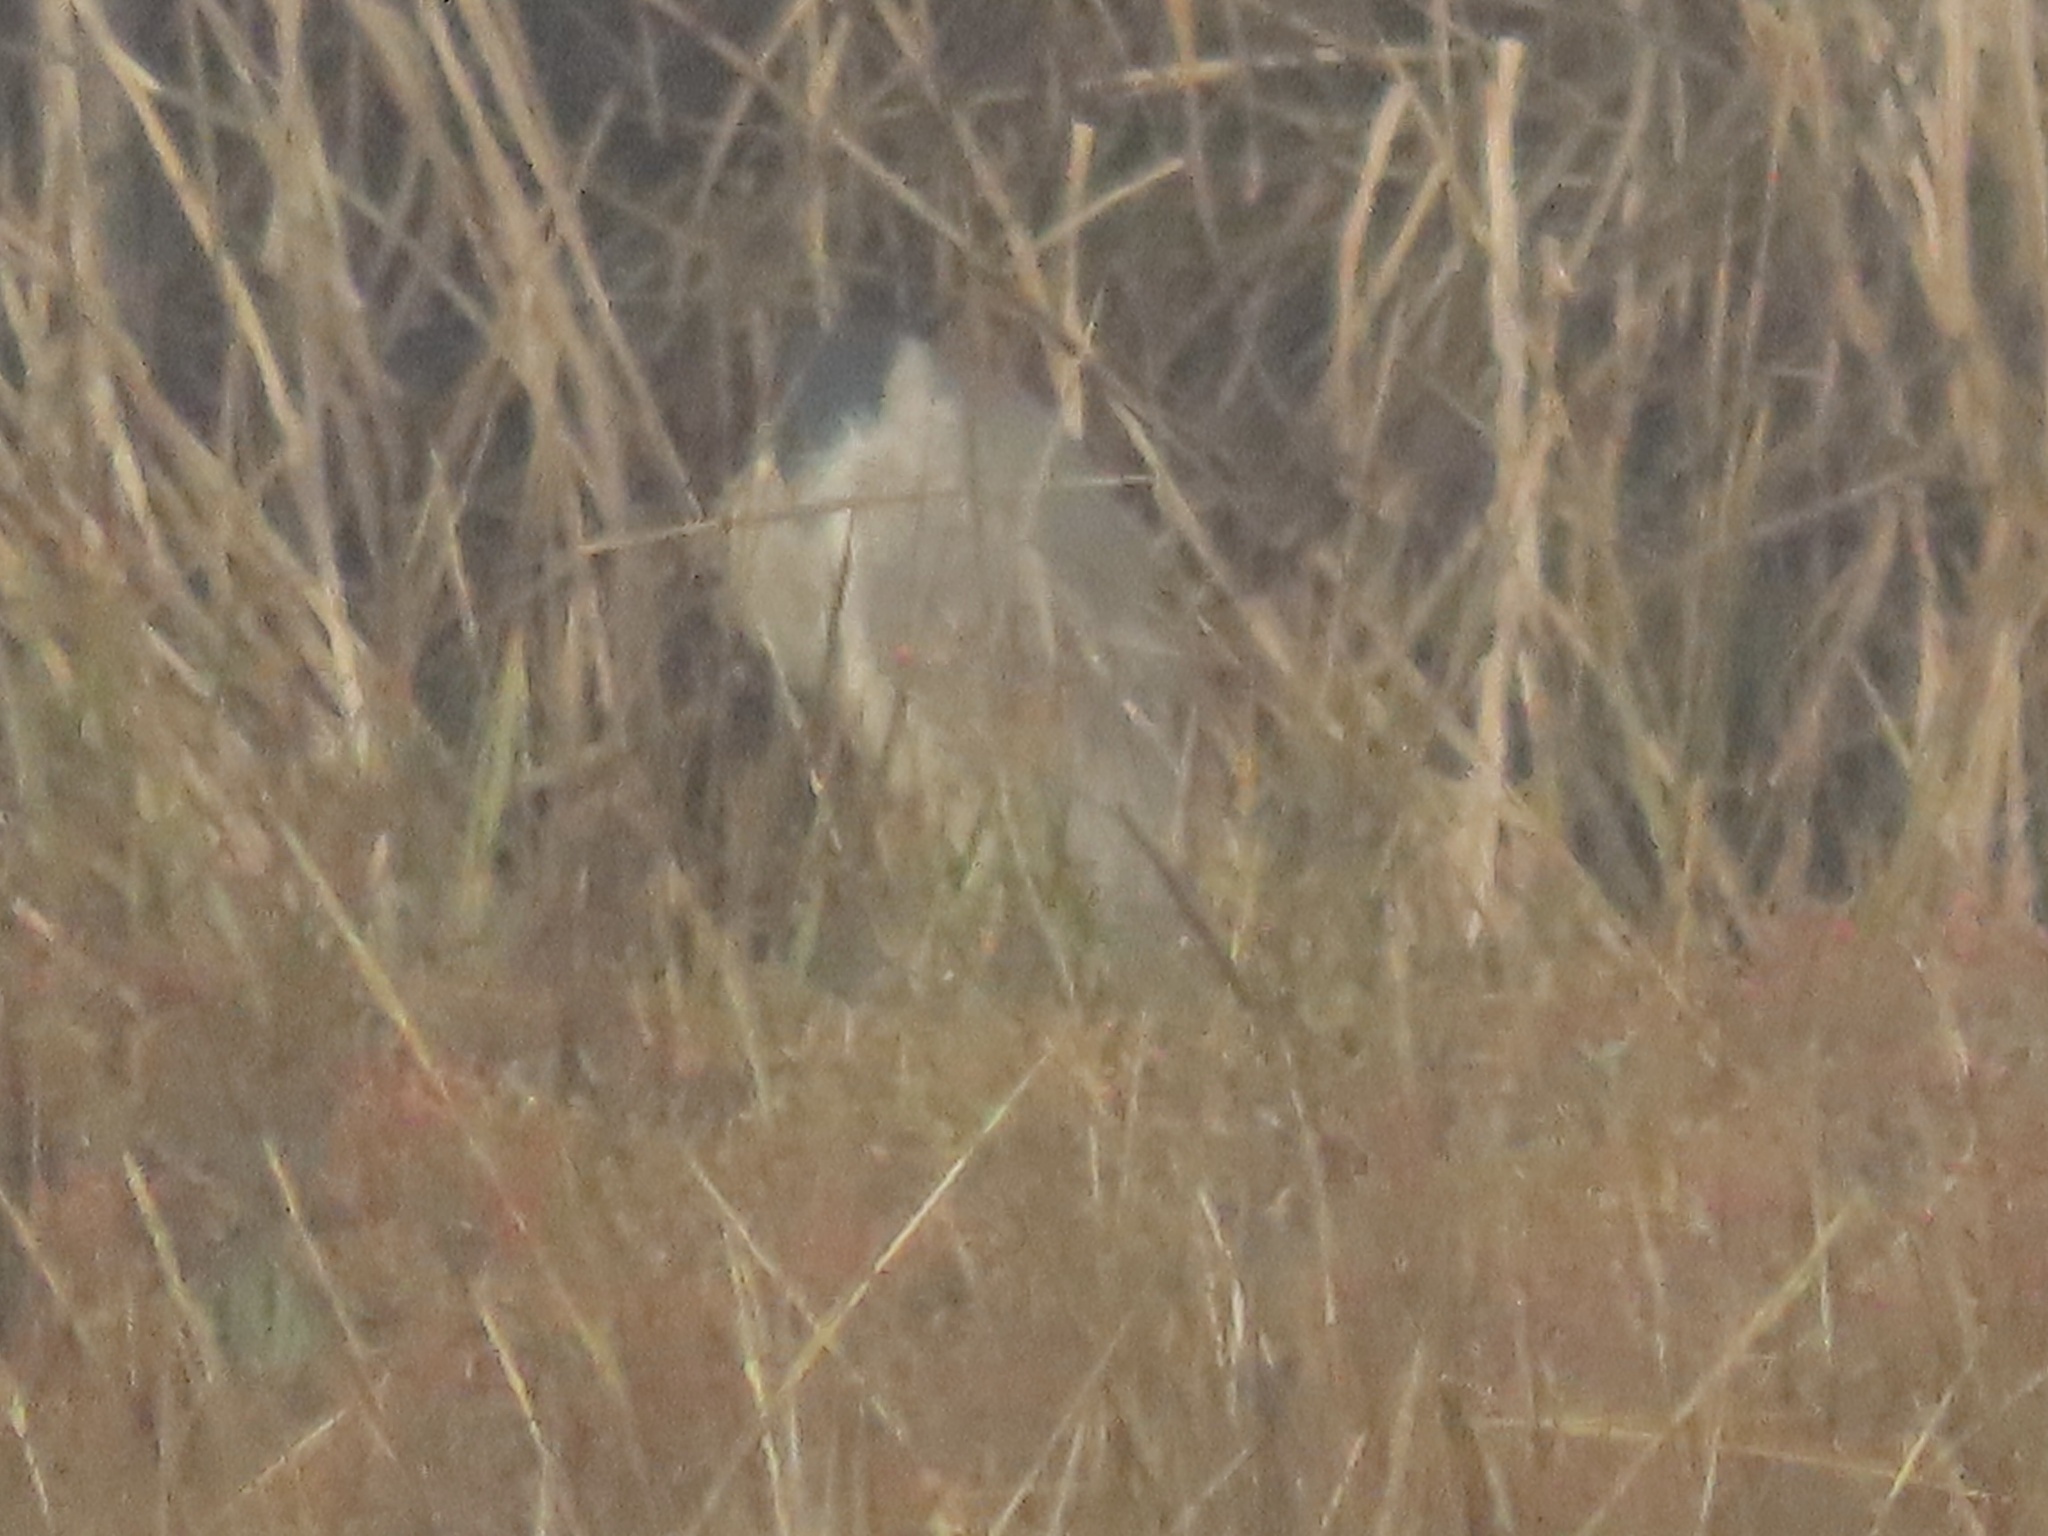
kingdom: Animalia
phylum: Chordata
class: Aves
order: Pelecaniformes
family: Ardeidae
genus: Nycticorax
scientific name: Nycticorax nycticorax
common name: Black-crowned night heron
